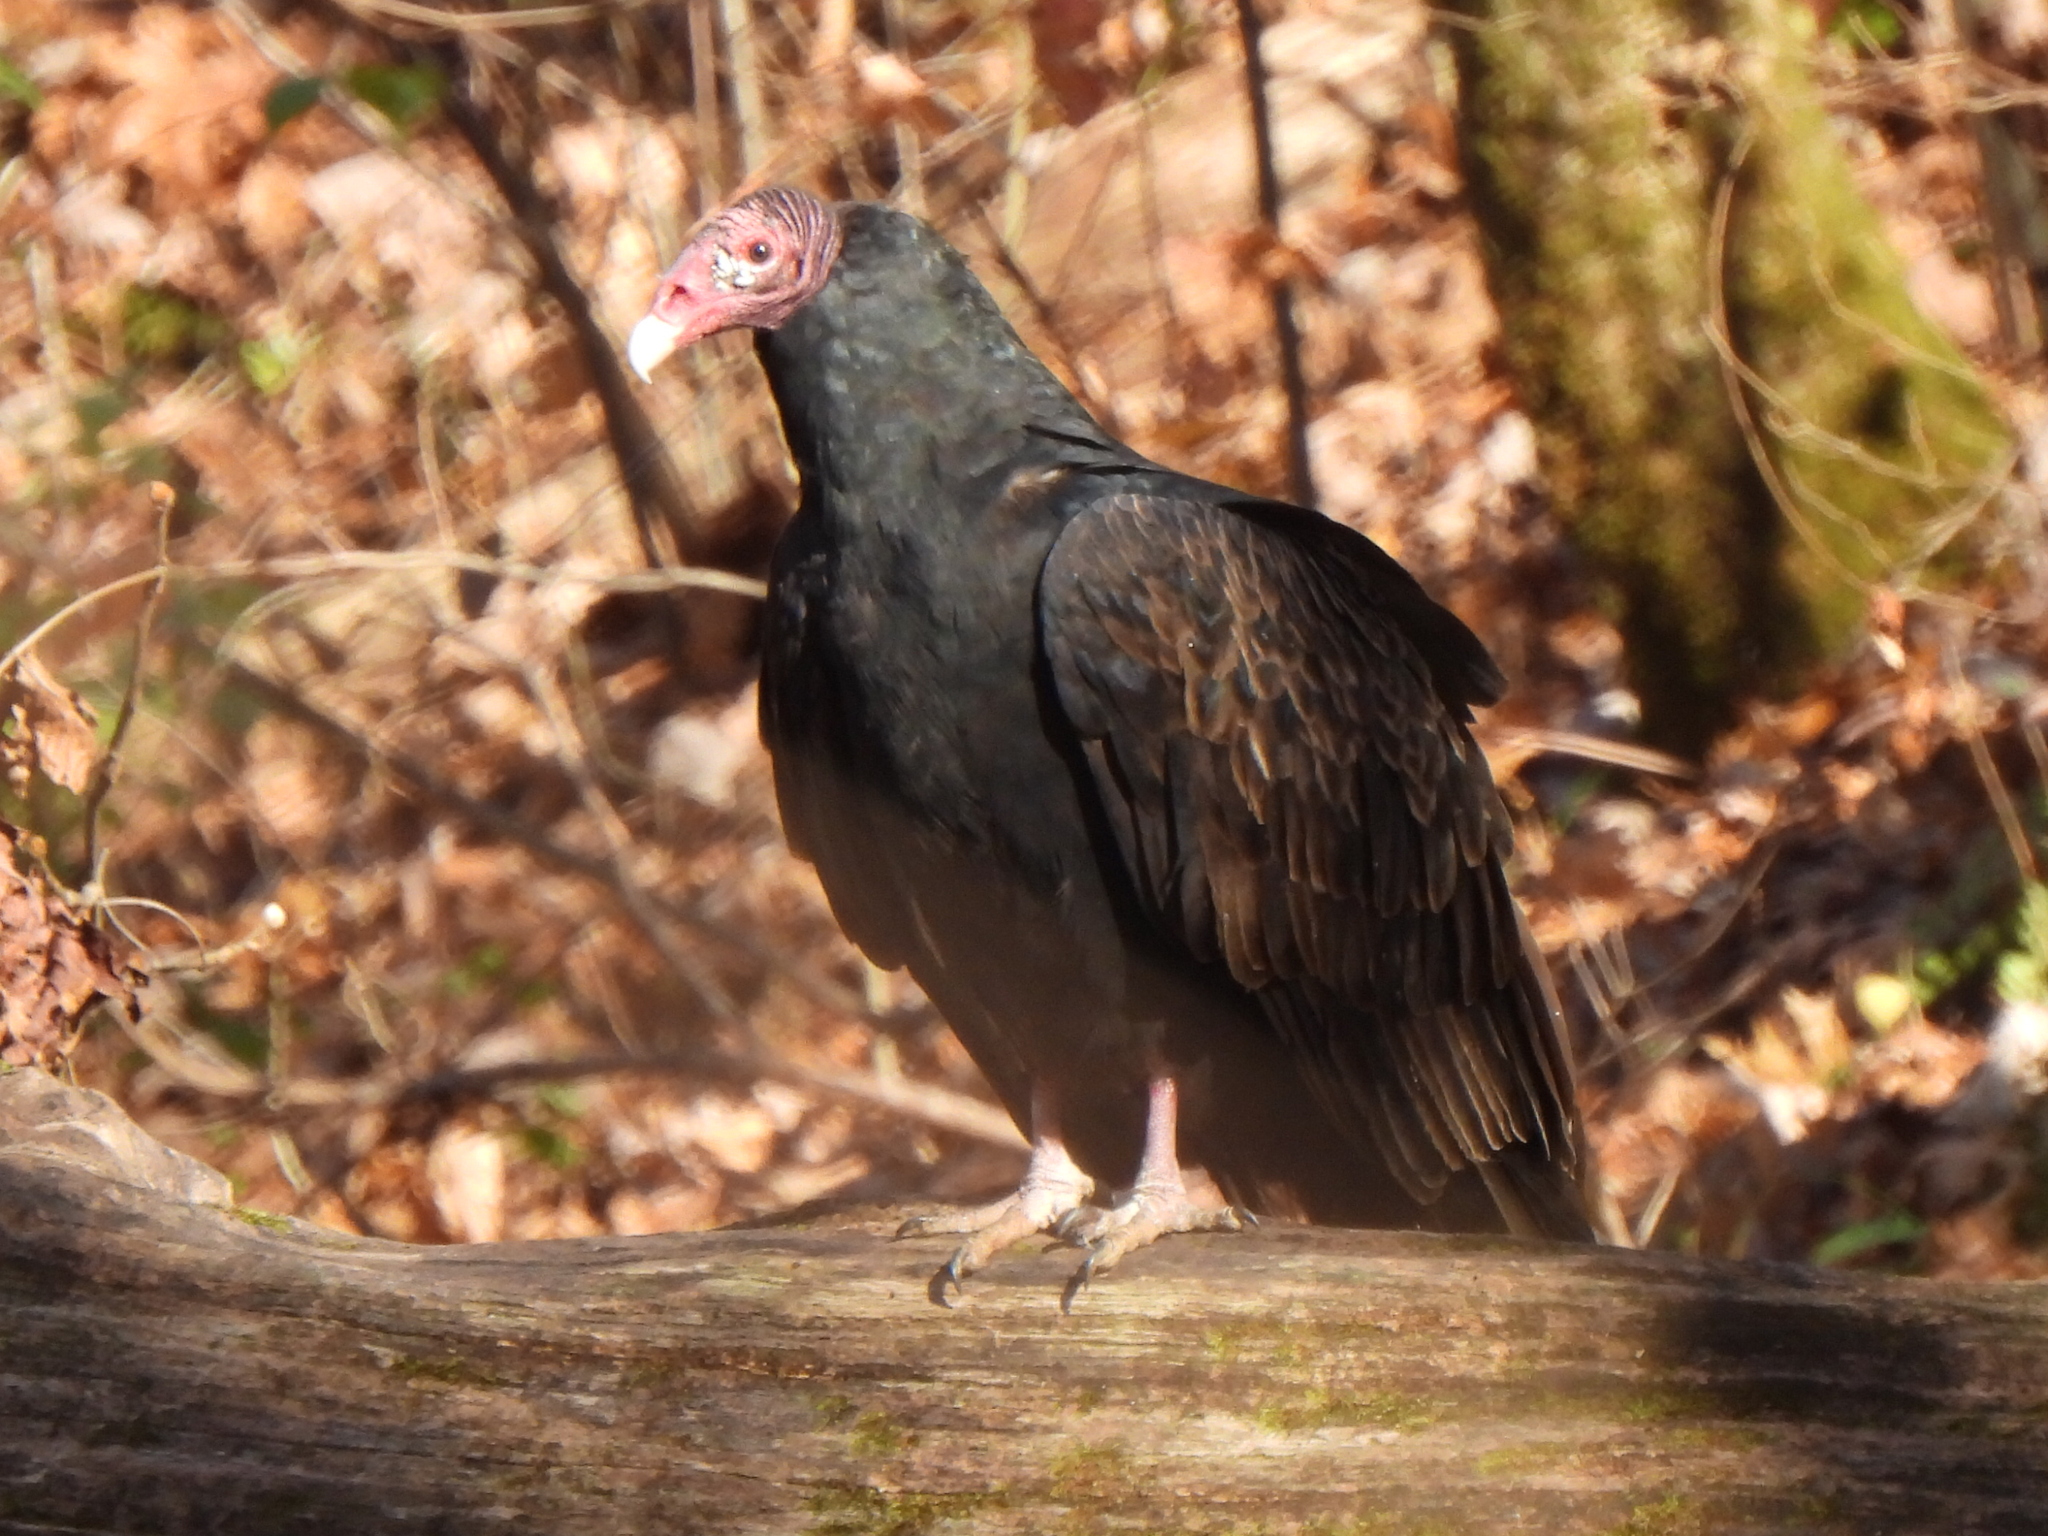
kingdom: Animalia
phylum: Chordata
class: Aves
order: Accipitriformes
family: Cathartidae
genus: Cathartes
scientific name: Cathartes aura
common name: Turkey vulture
